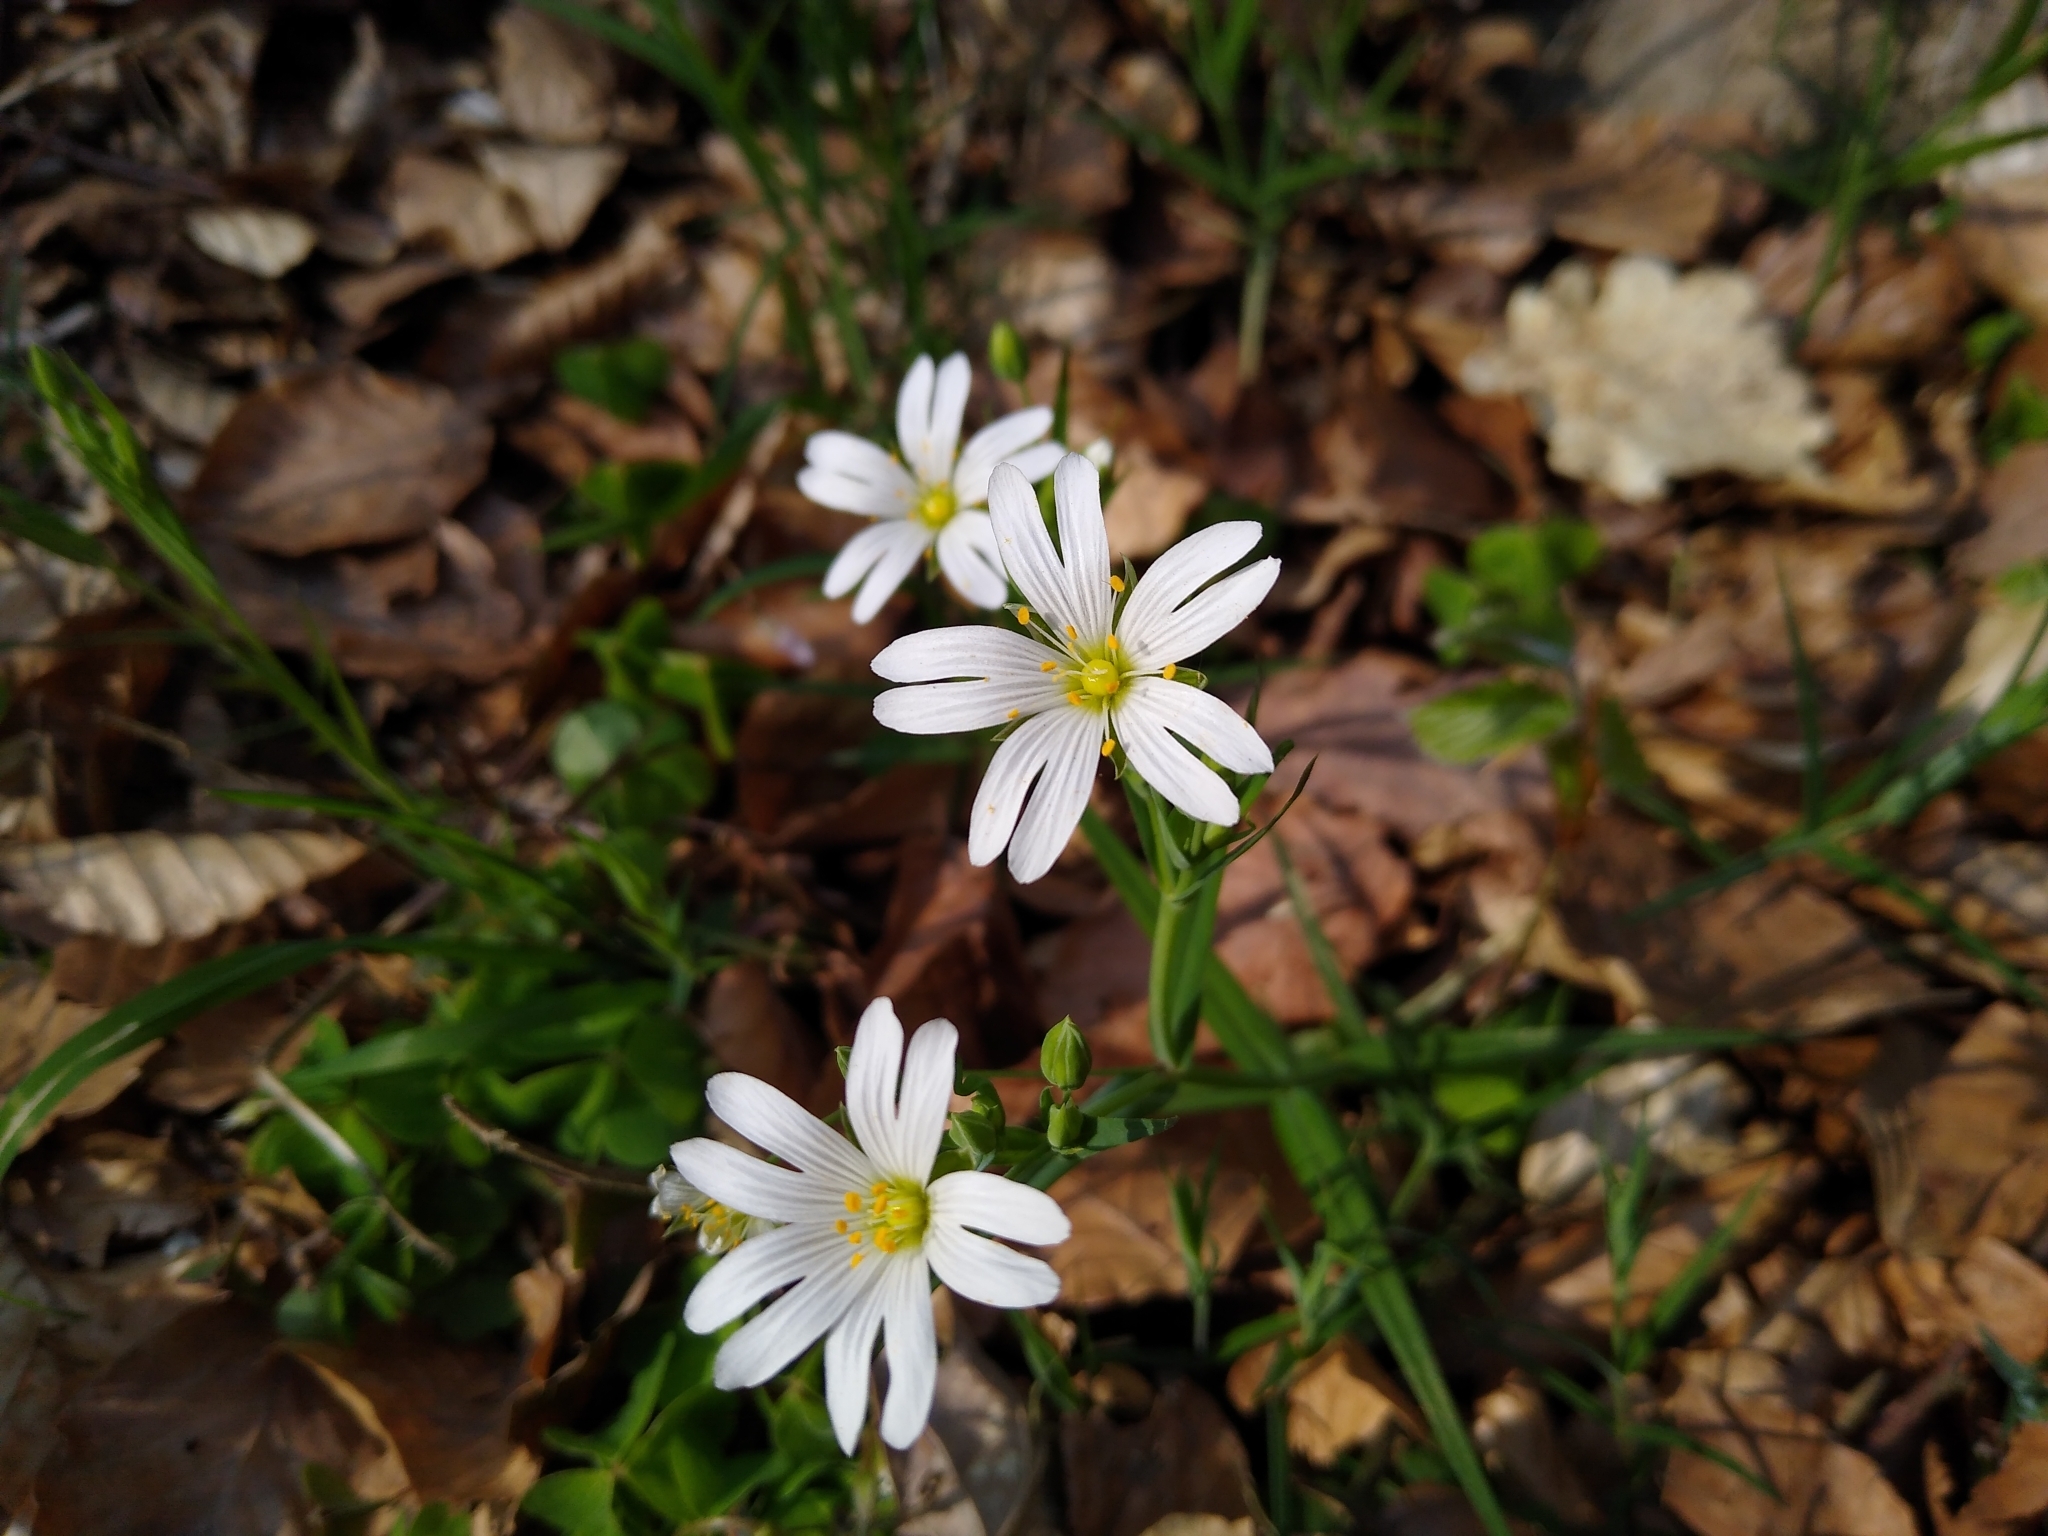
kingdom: Plantae
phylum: Tracheophyta
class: Magnoliopsida
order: Caryophyllales
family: Caryophyllaceae
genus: Rabelera
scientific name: Rabelera holostea
